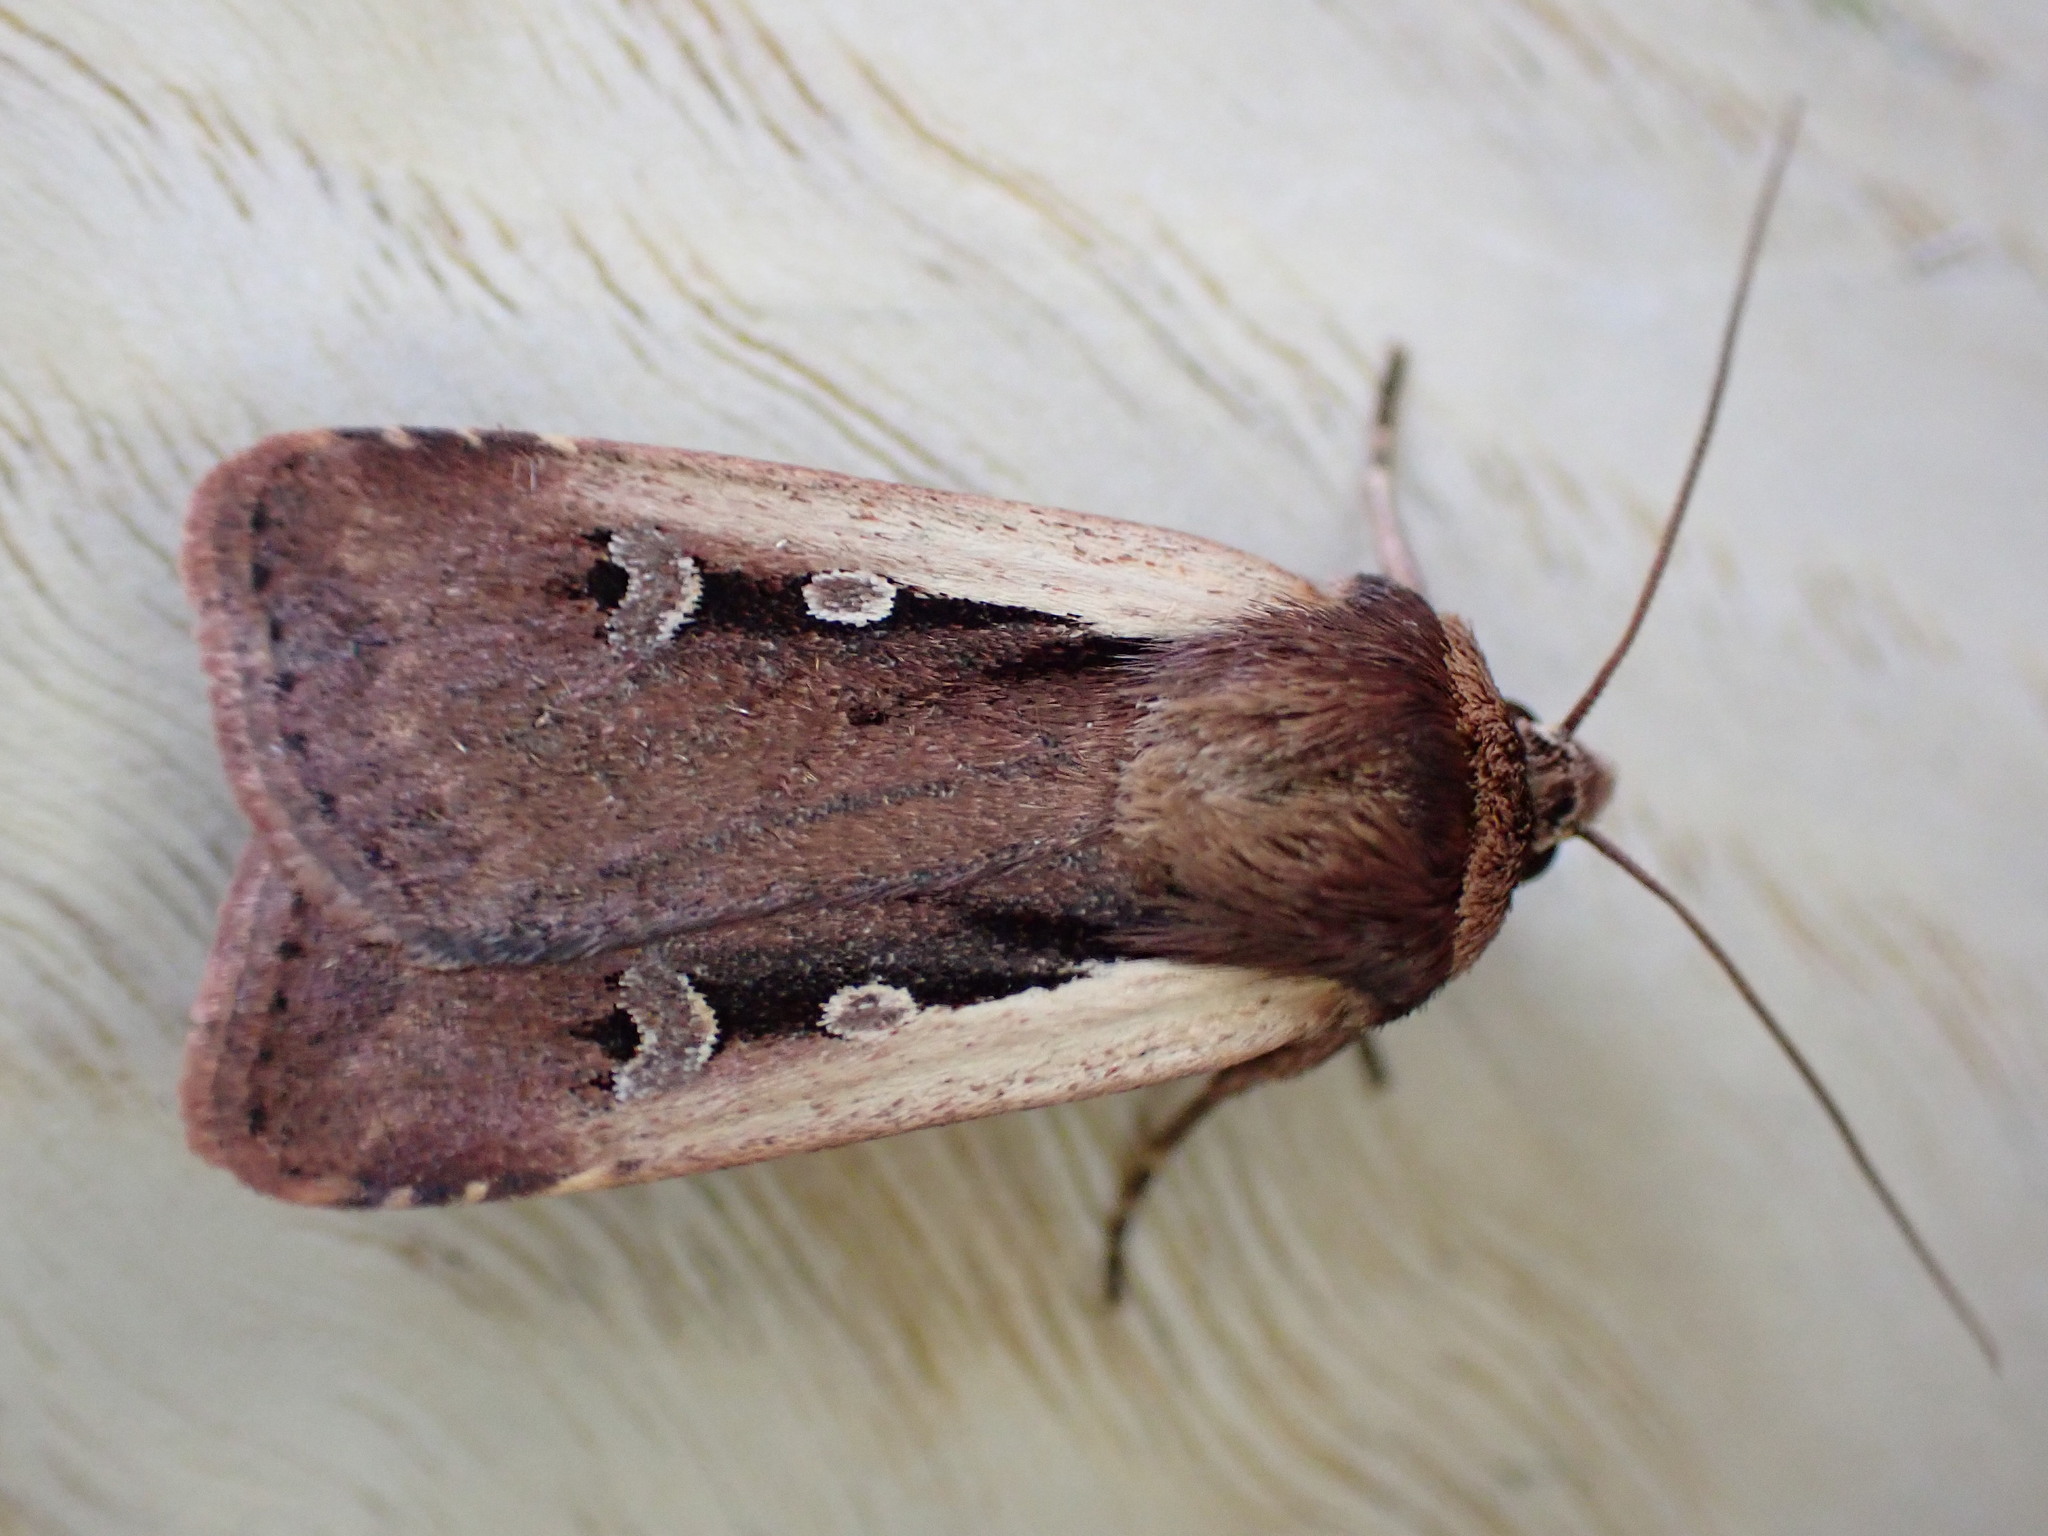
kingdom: Animalia
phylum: Arthropoda
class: Insecta
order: Lepidoptera
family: Noctuidae
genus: Ochropleura
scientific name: Ochropleura plecta
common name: Flame shoulder
